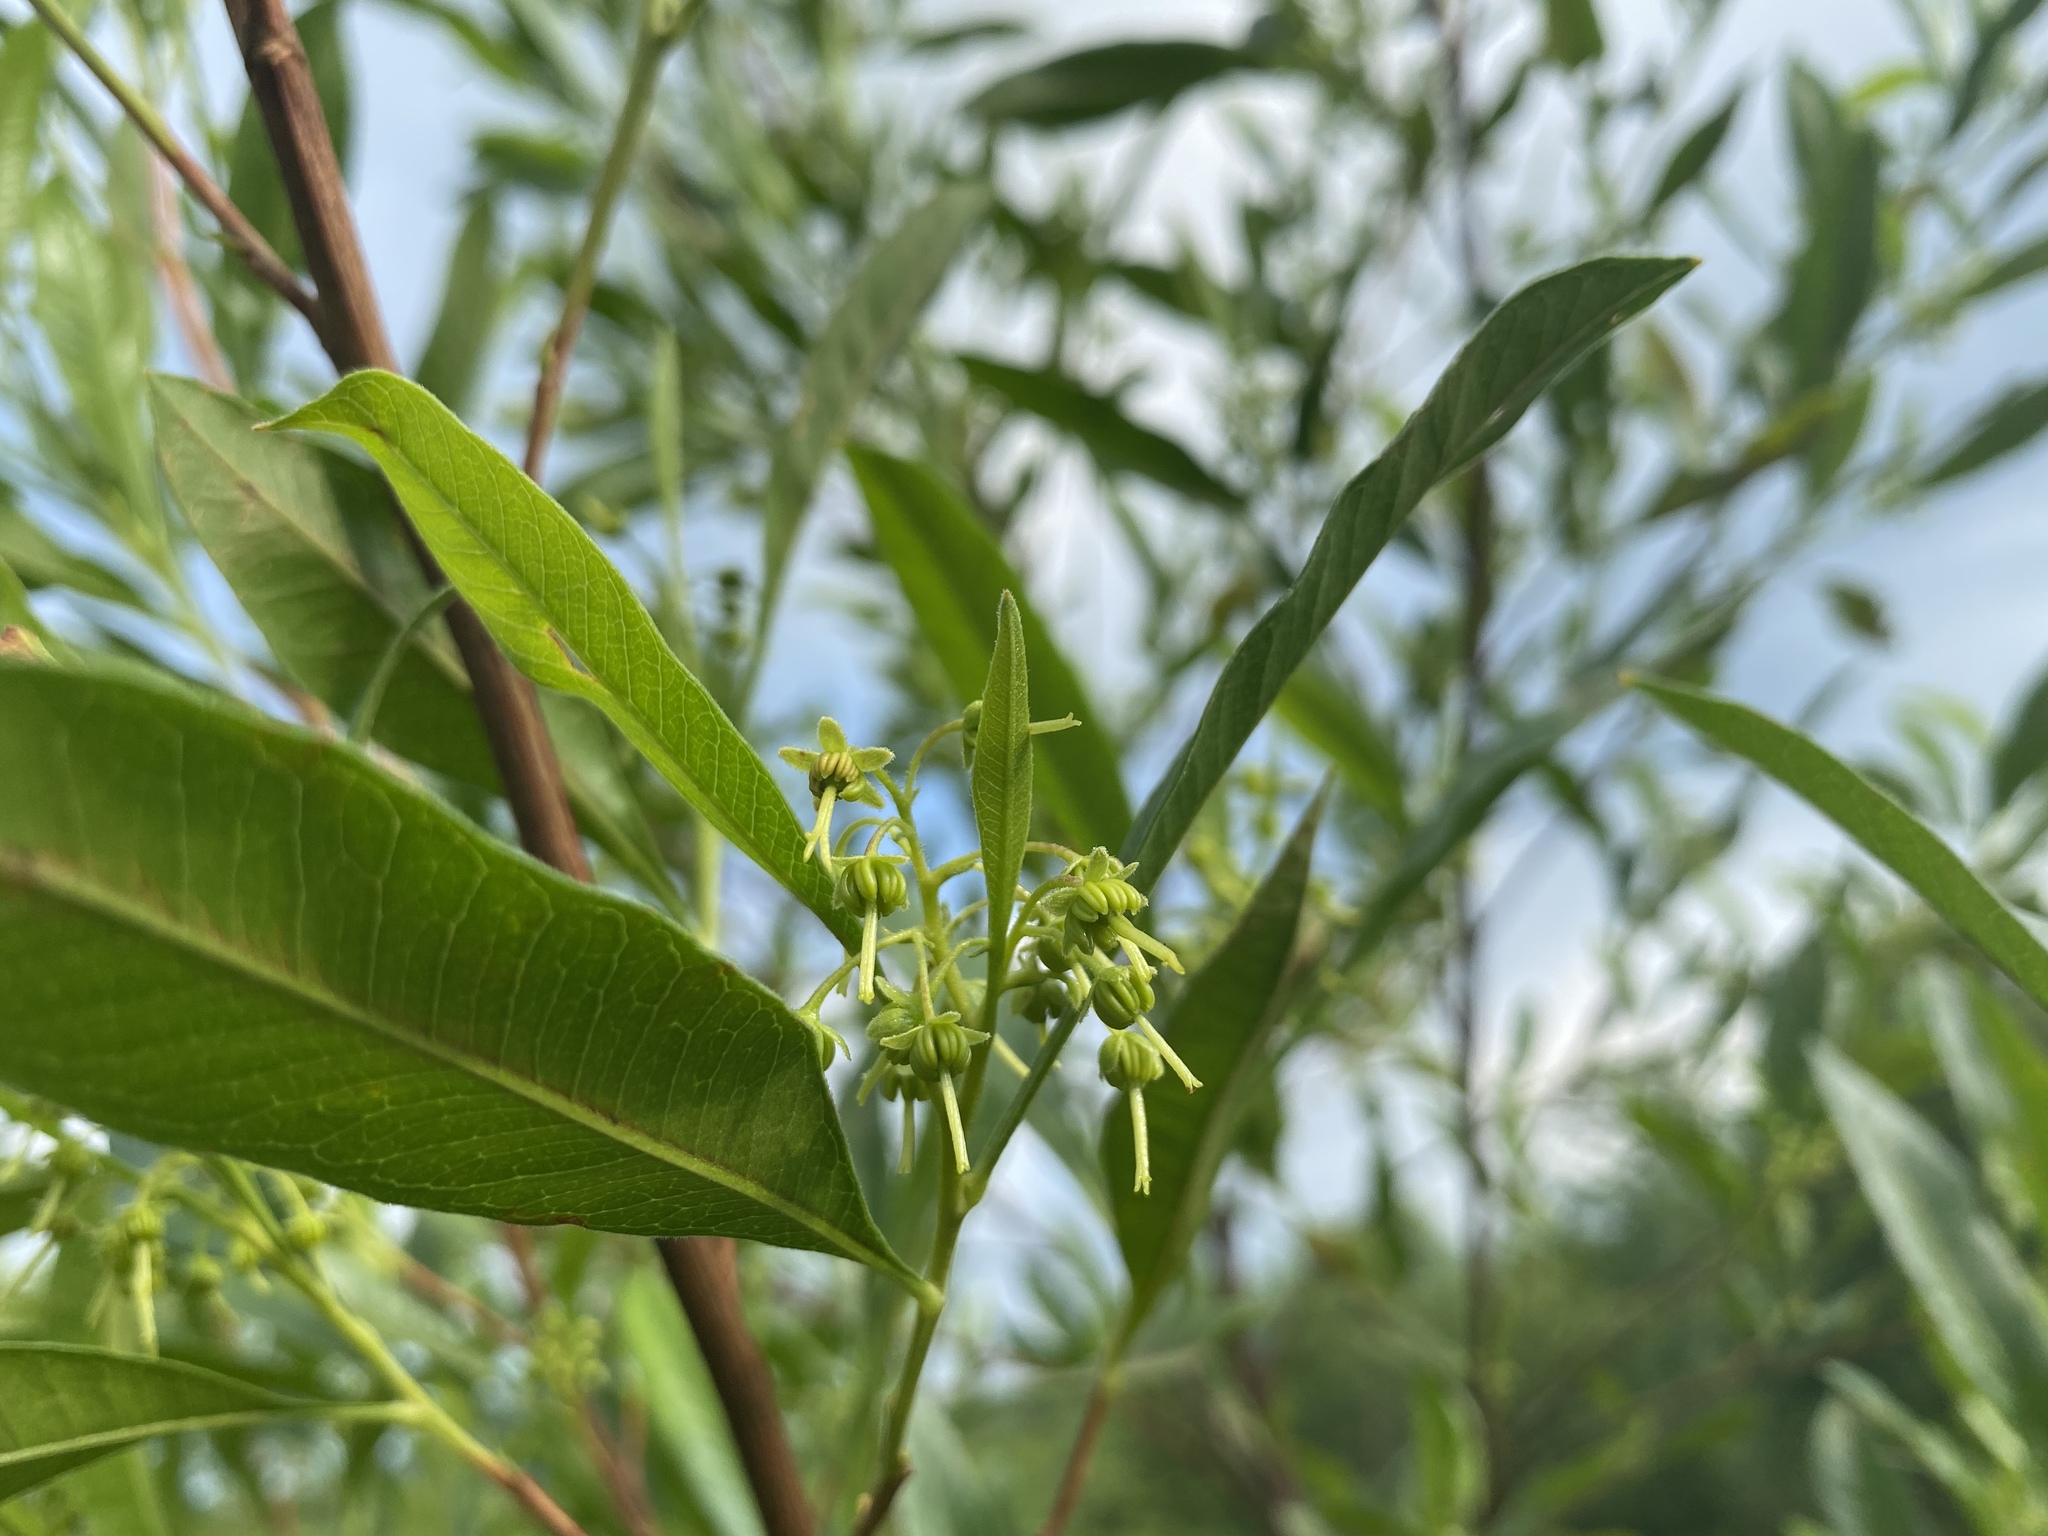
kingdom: Plantae
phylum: Tracheophyta
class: Magnoliopsida
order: Sapindales
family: Sapindaceae
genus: Dodonaea
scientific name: Dodonaea viscosa
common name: Hopbush
